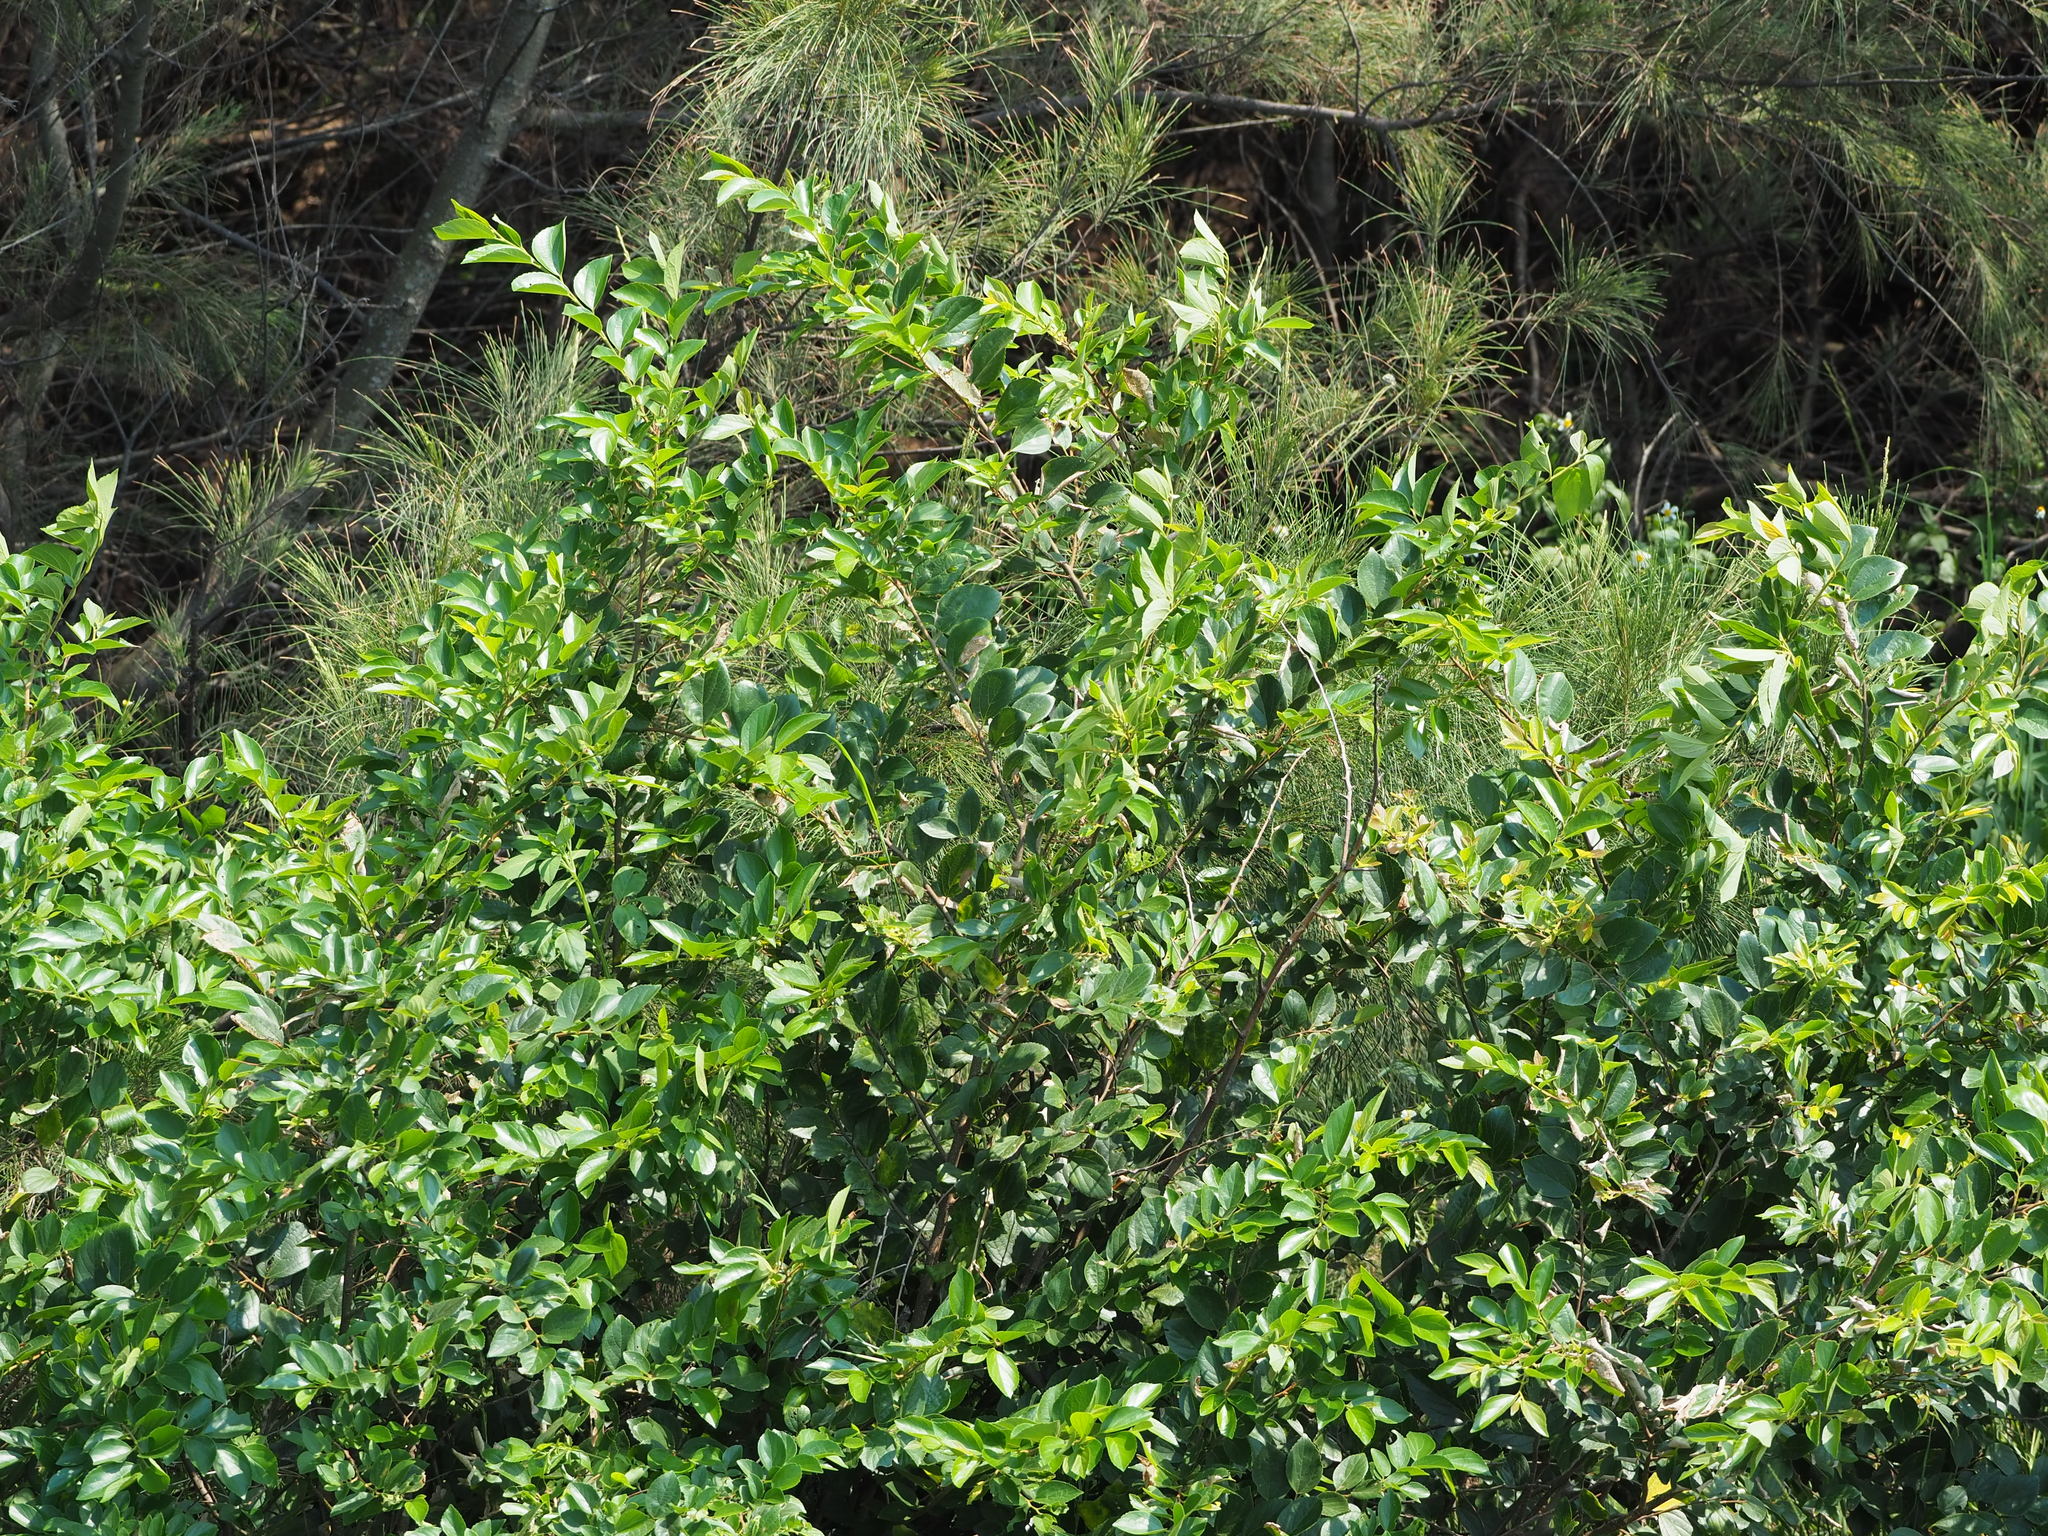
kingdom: Plantae
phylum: Tracheophyta
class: Magnoliopsida
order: Rosales
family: Cannabaceae
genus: Celtis
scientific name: Celtis sinensis
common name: Chinese hackberry
